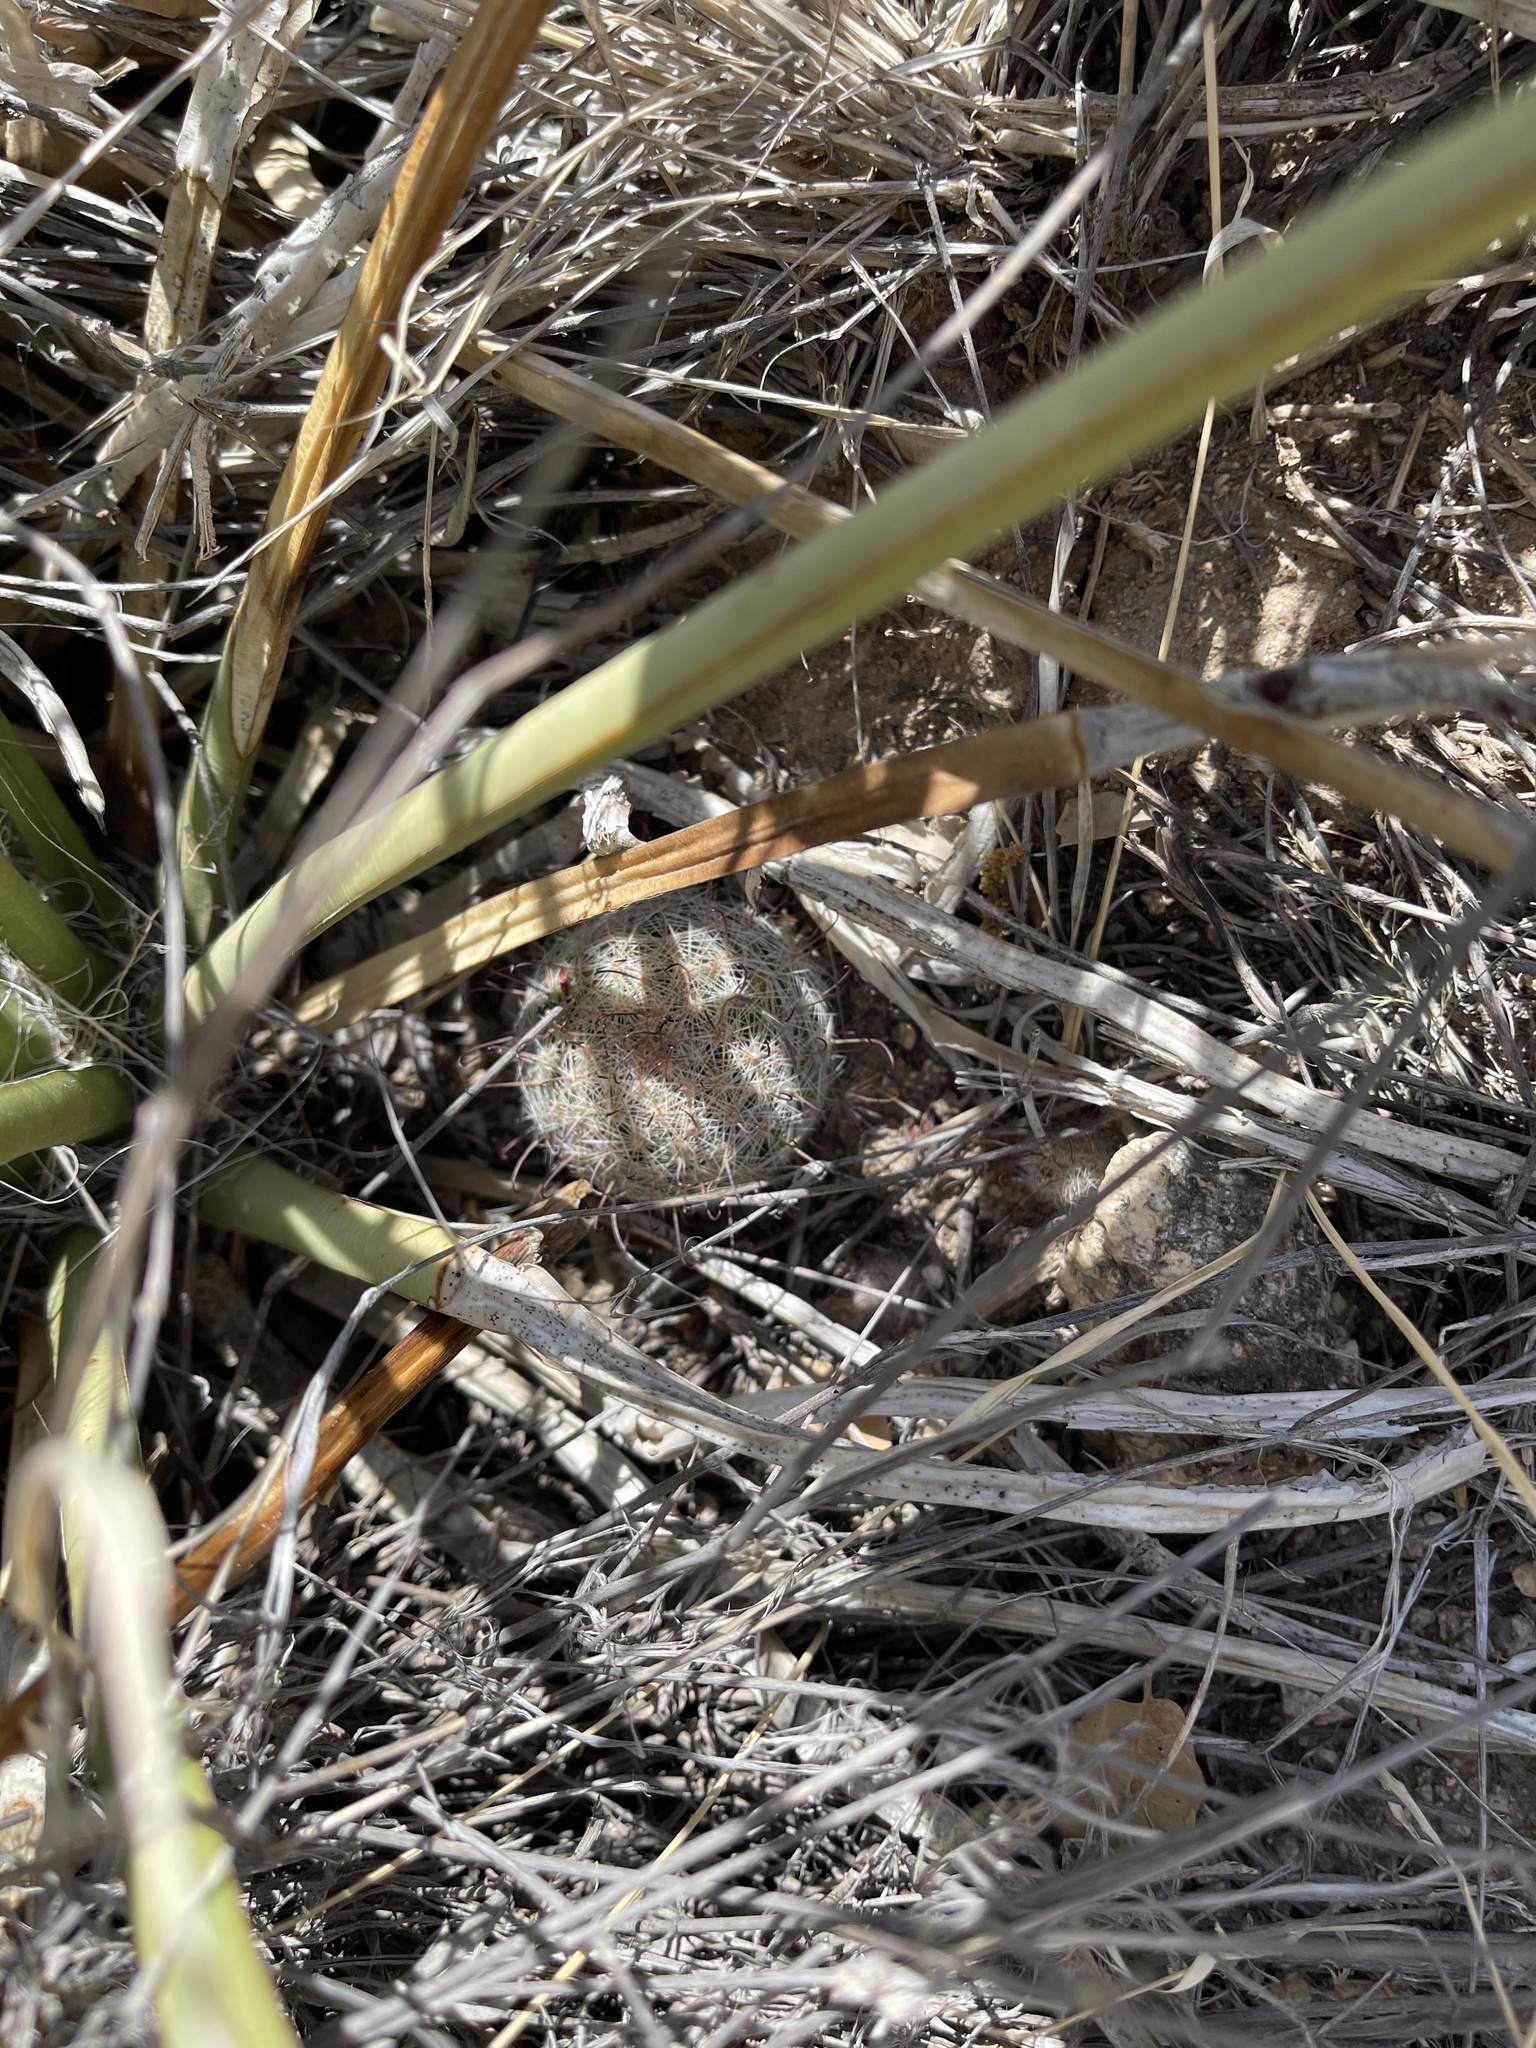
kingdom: Plantae
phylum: Tracheophyta
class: Magnoliopsida
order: Caryophyllales
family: Cactaceae
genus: Cochemiea
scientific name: Cochemiea grahamii
